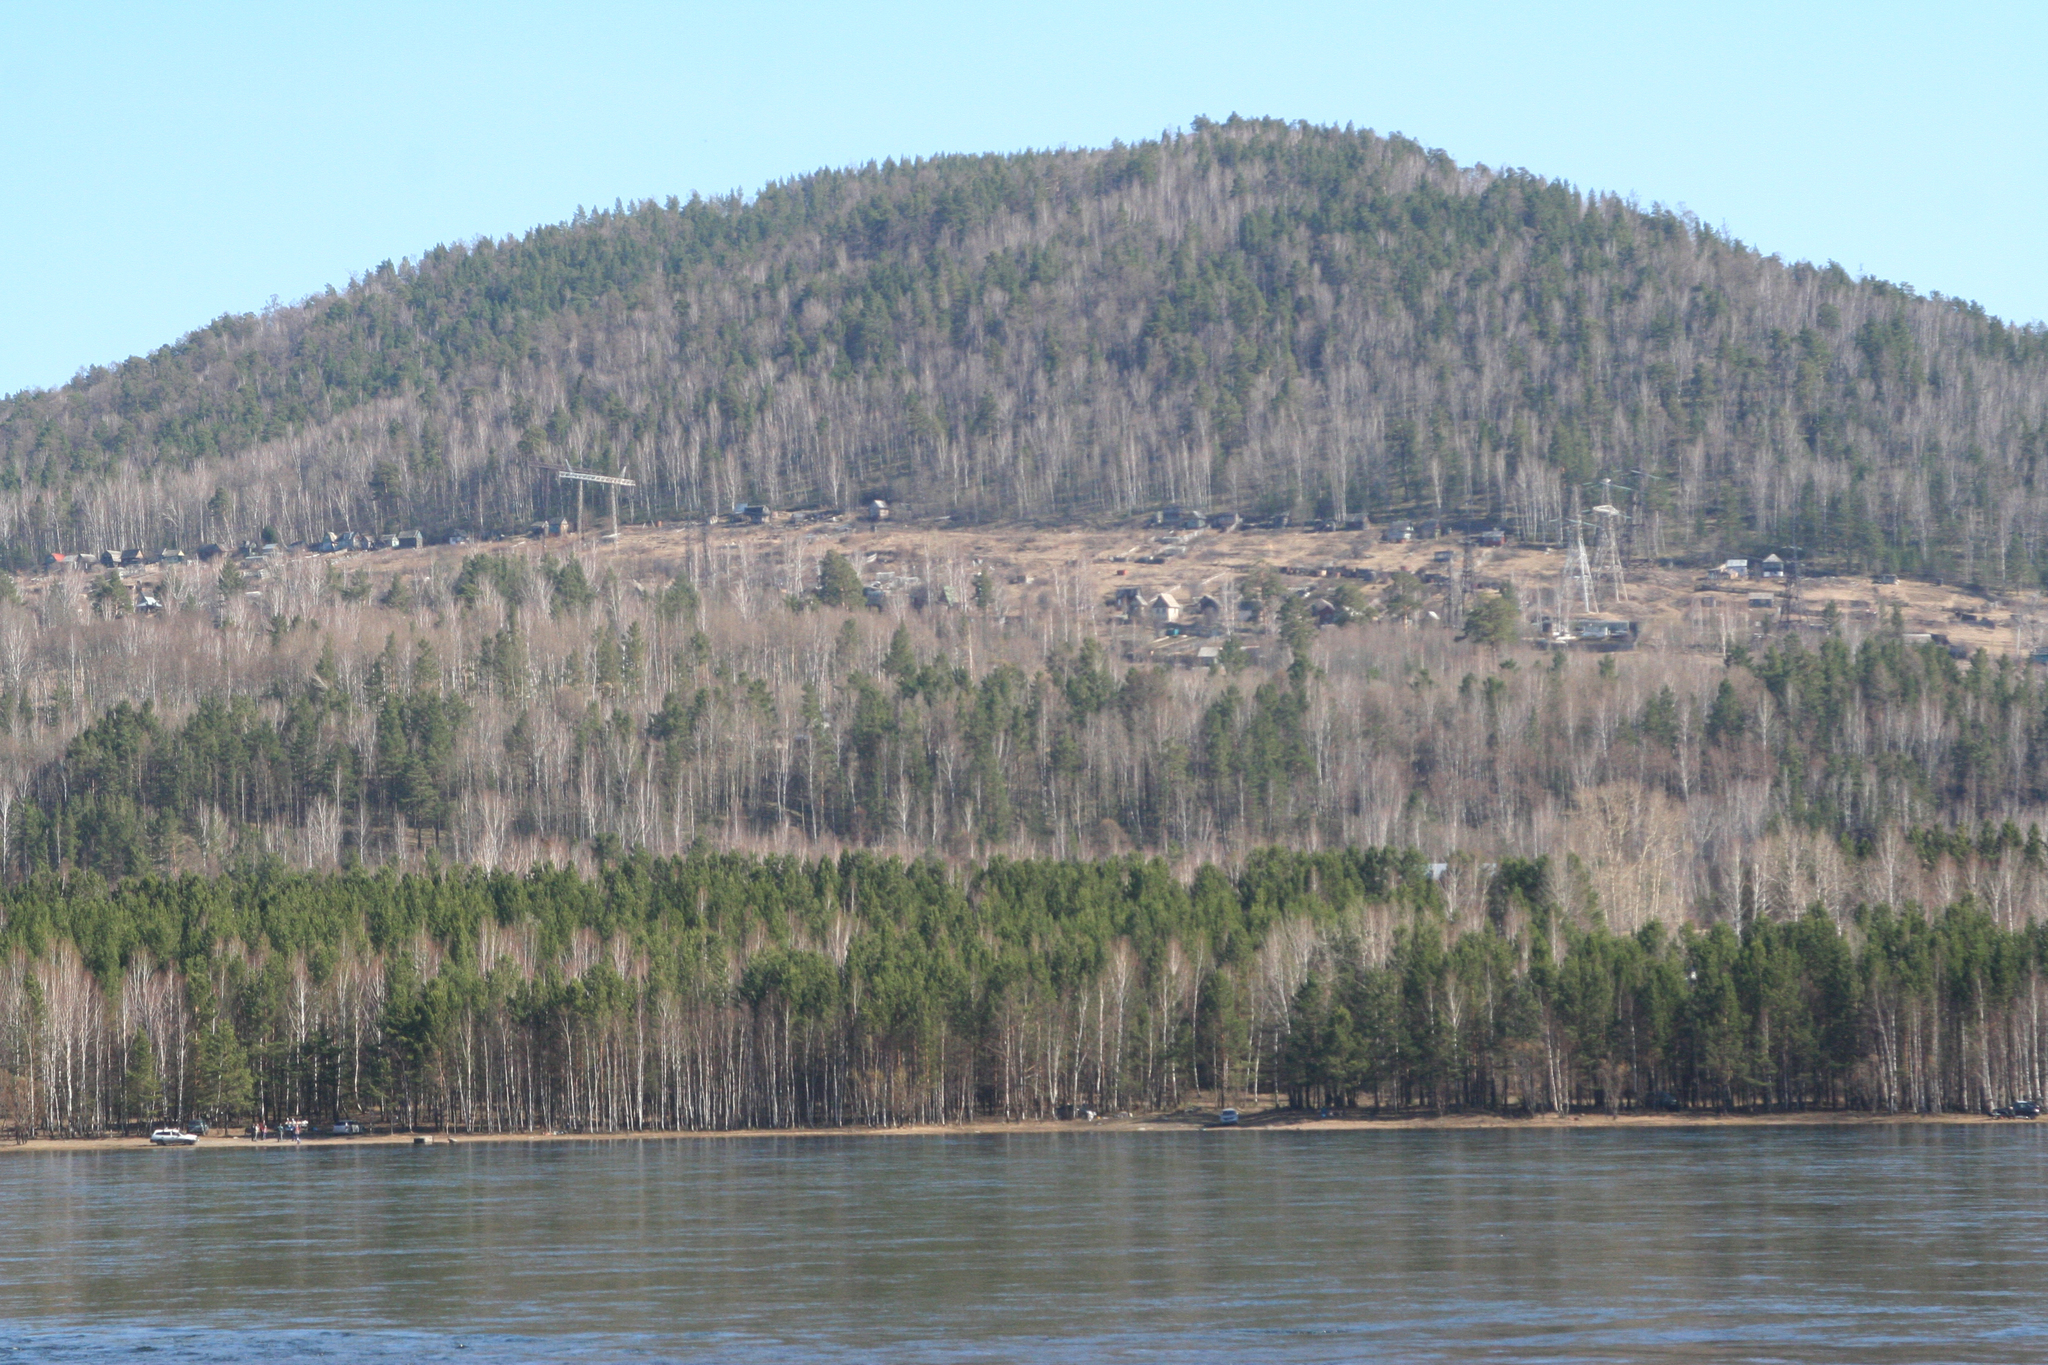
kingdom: Plantae
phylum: Tracheophyta
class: Pinopsida
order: Pinales
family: Pinaceae
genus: Pinus
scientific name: Pinus sylvestris
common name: Scots pine
